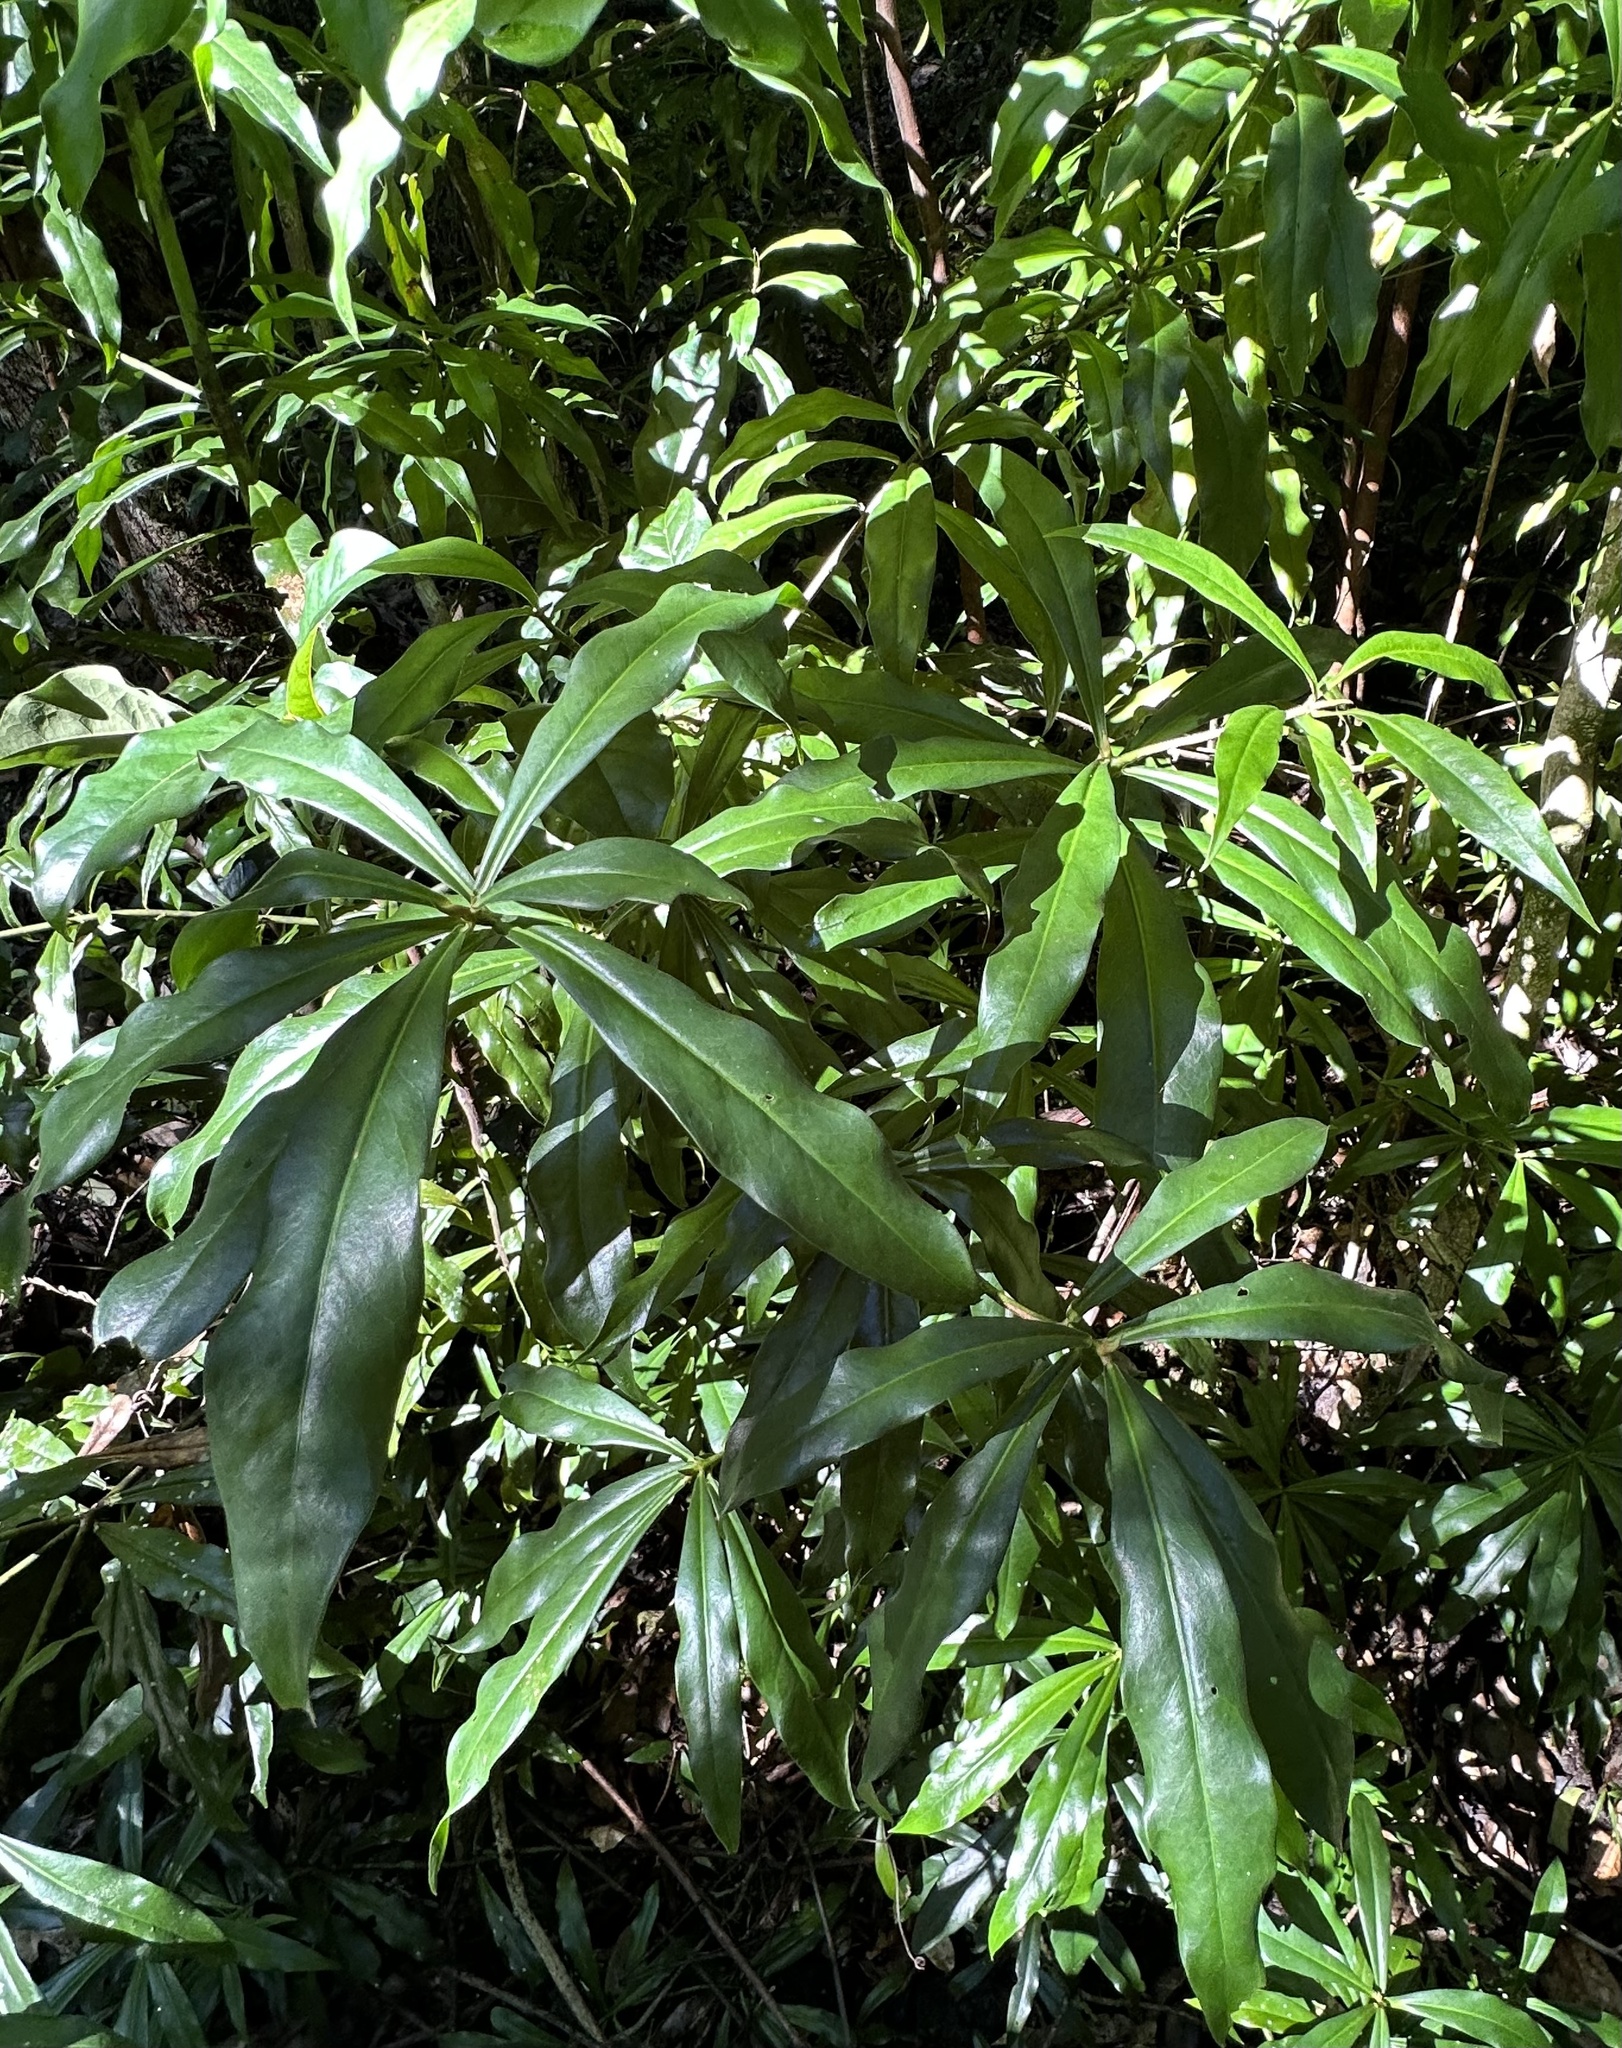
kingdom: Plantae
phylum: Tracheophyta
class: Magnoliopsida
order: Canellales
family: Winteraceae
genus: Drimys
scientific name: Drimys insipida
